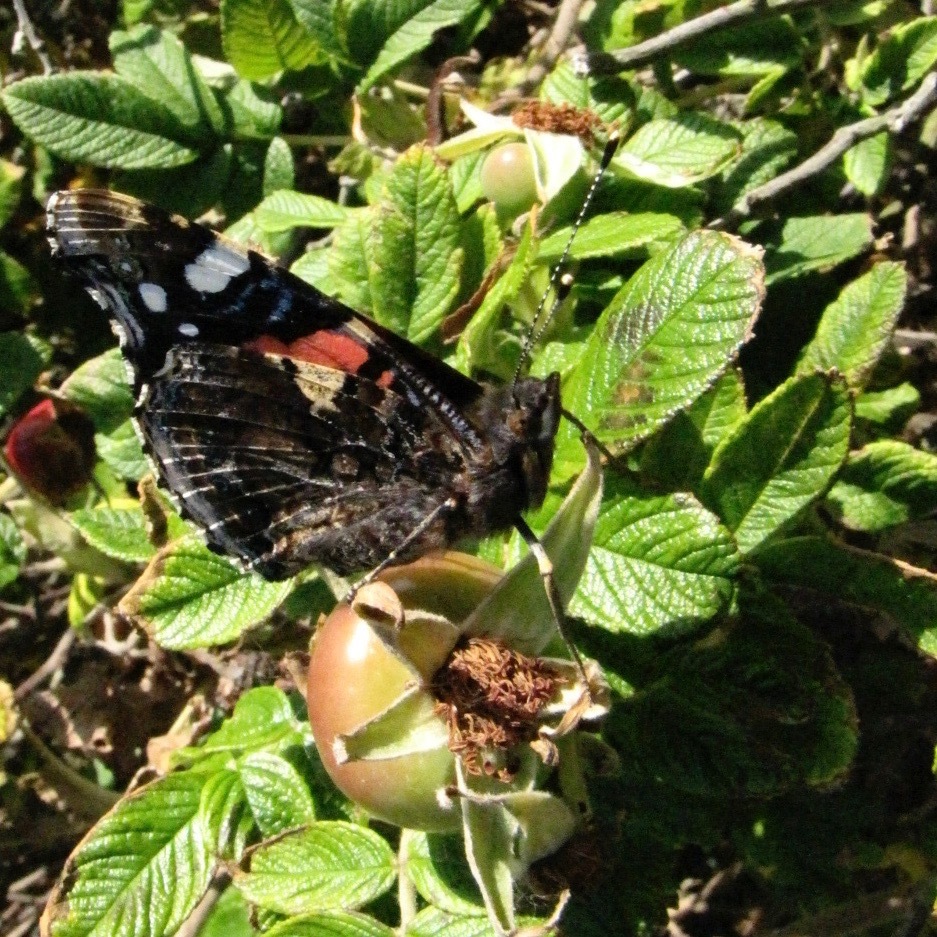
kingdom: Animalia
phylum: Arthropoda
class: Insecta
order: Lepidoptera
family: Nymphalidae
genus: Vanessa
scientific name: Vanessa atalanta
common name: Red admiral
